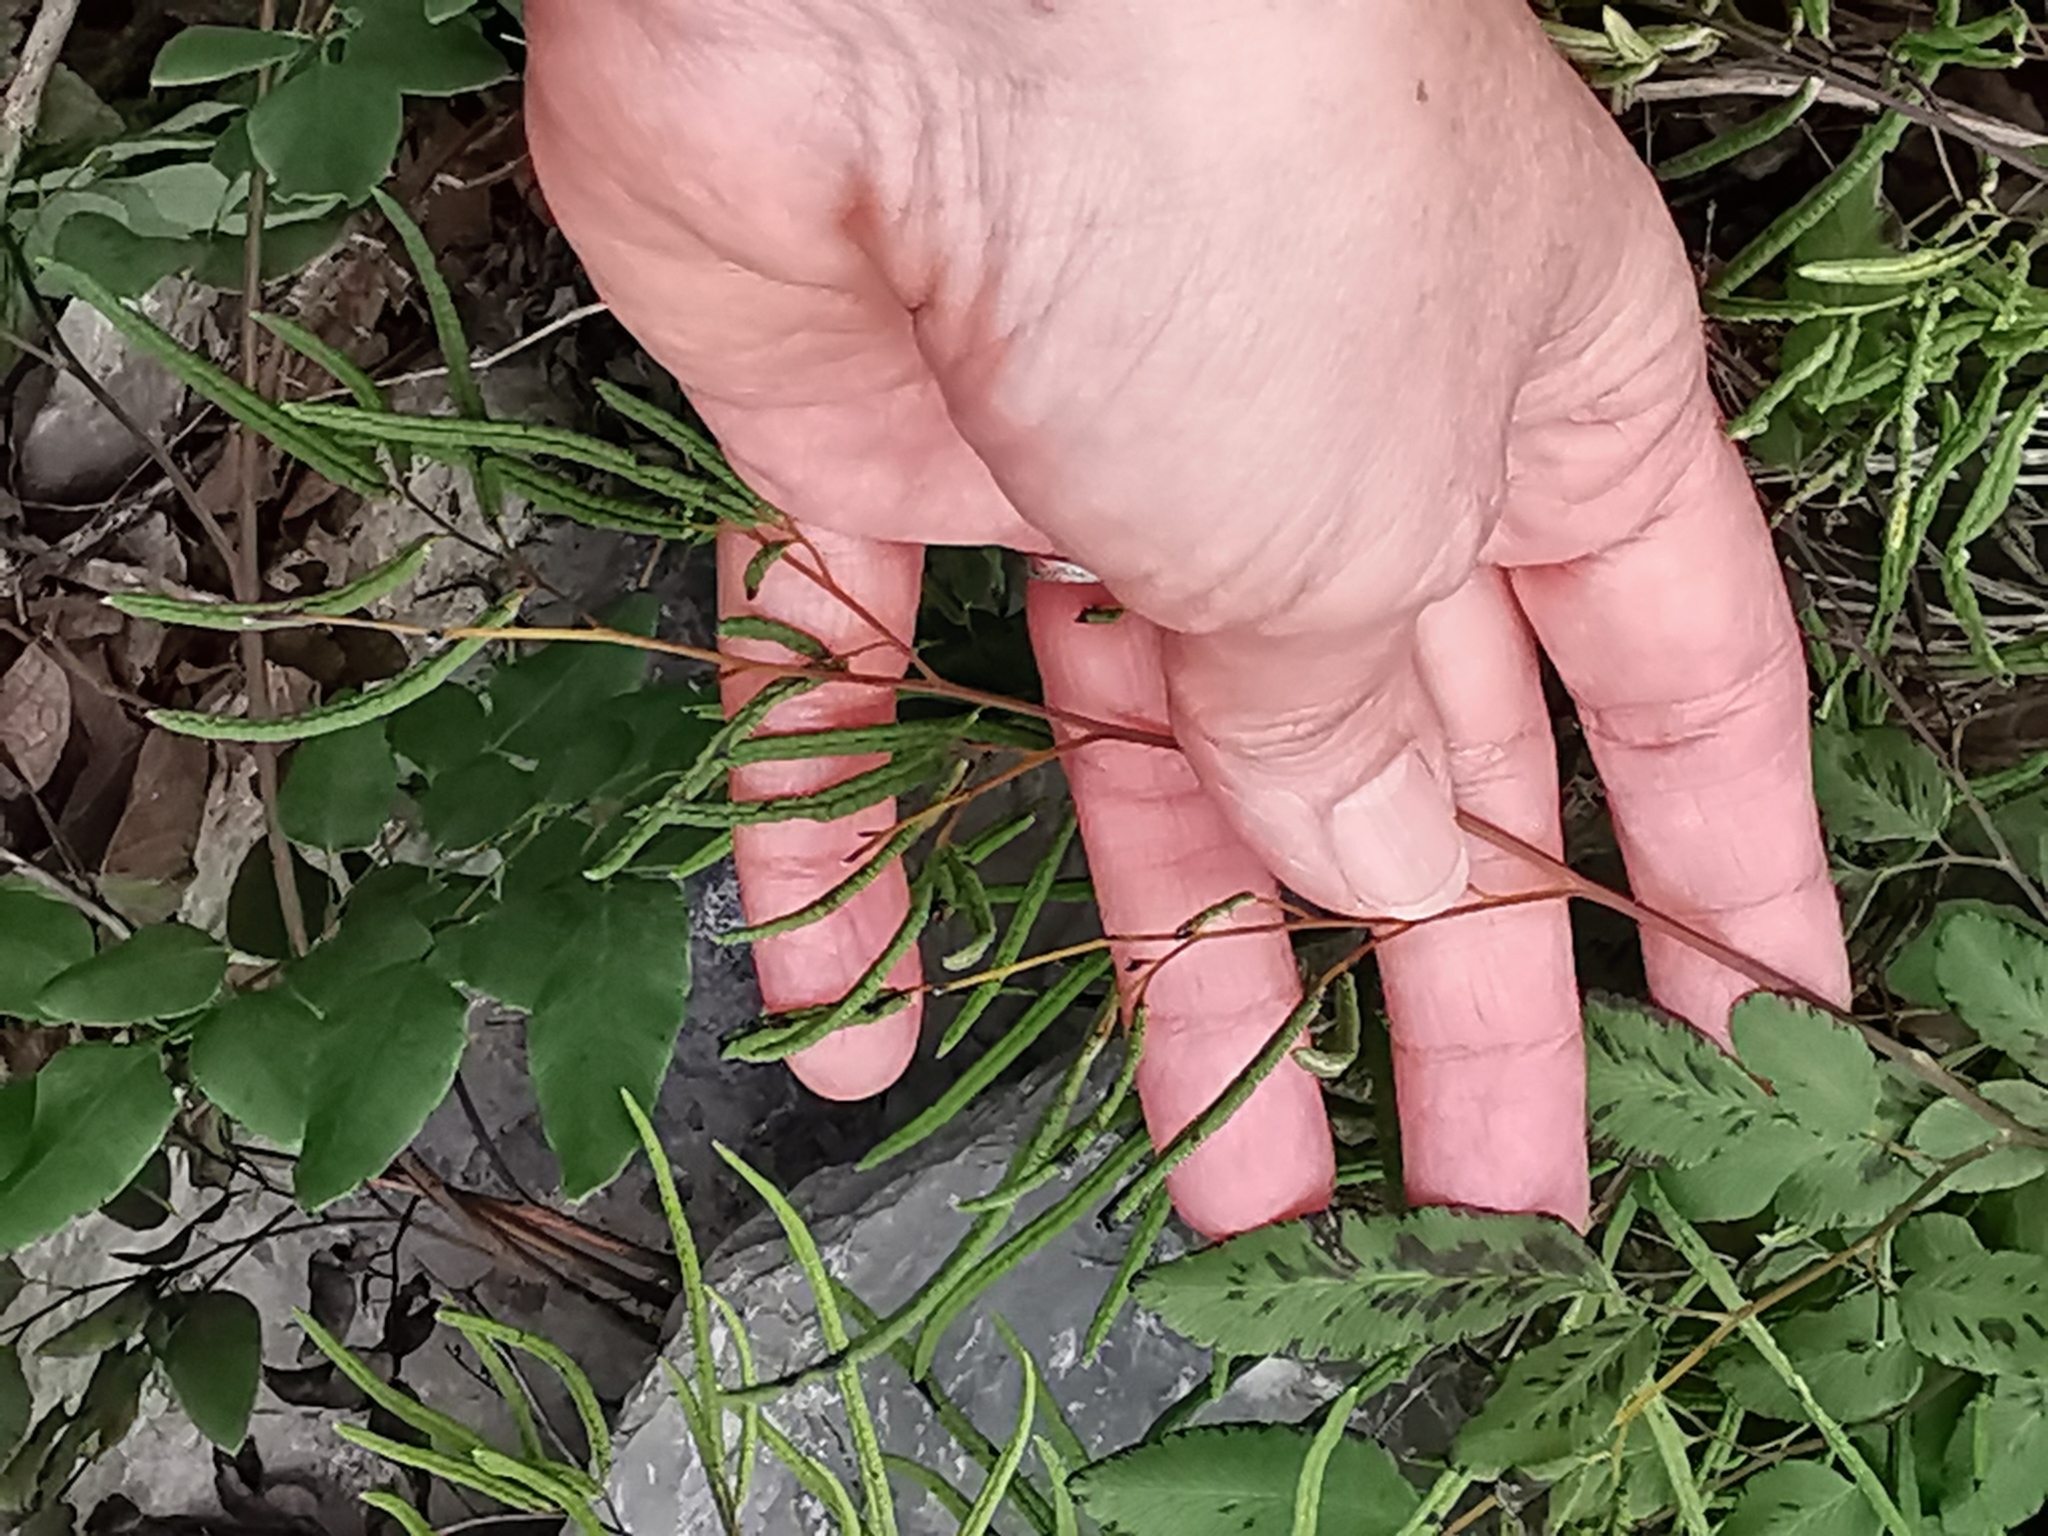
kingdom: Plantae
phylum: Tracheophyta
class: Polypodiopsida
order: Polypodiales
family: Pteridaceae
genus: Llavea
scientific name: Llavea cordifolia
